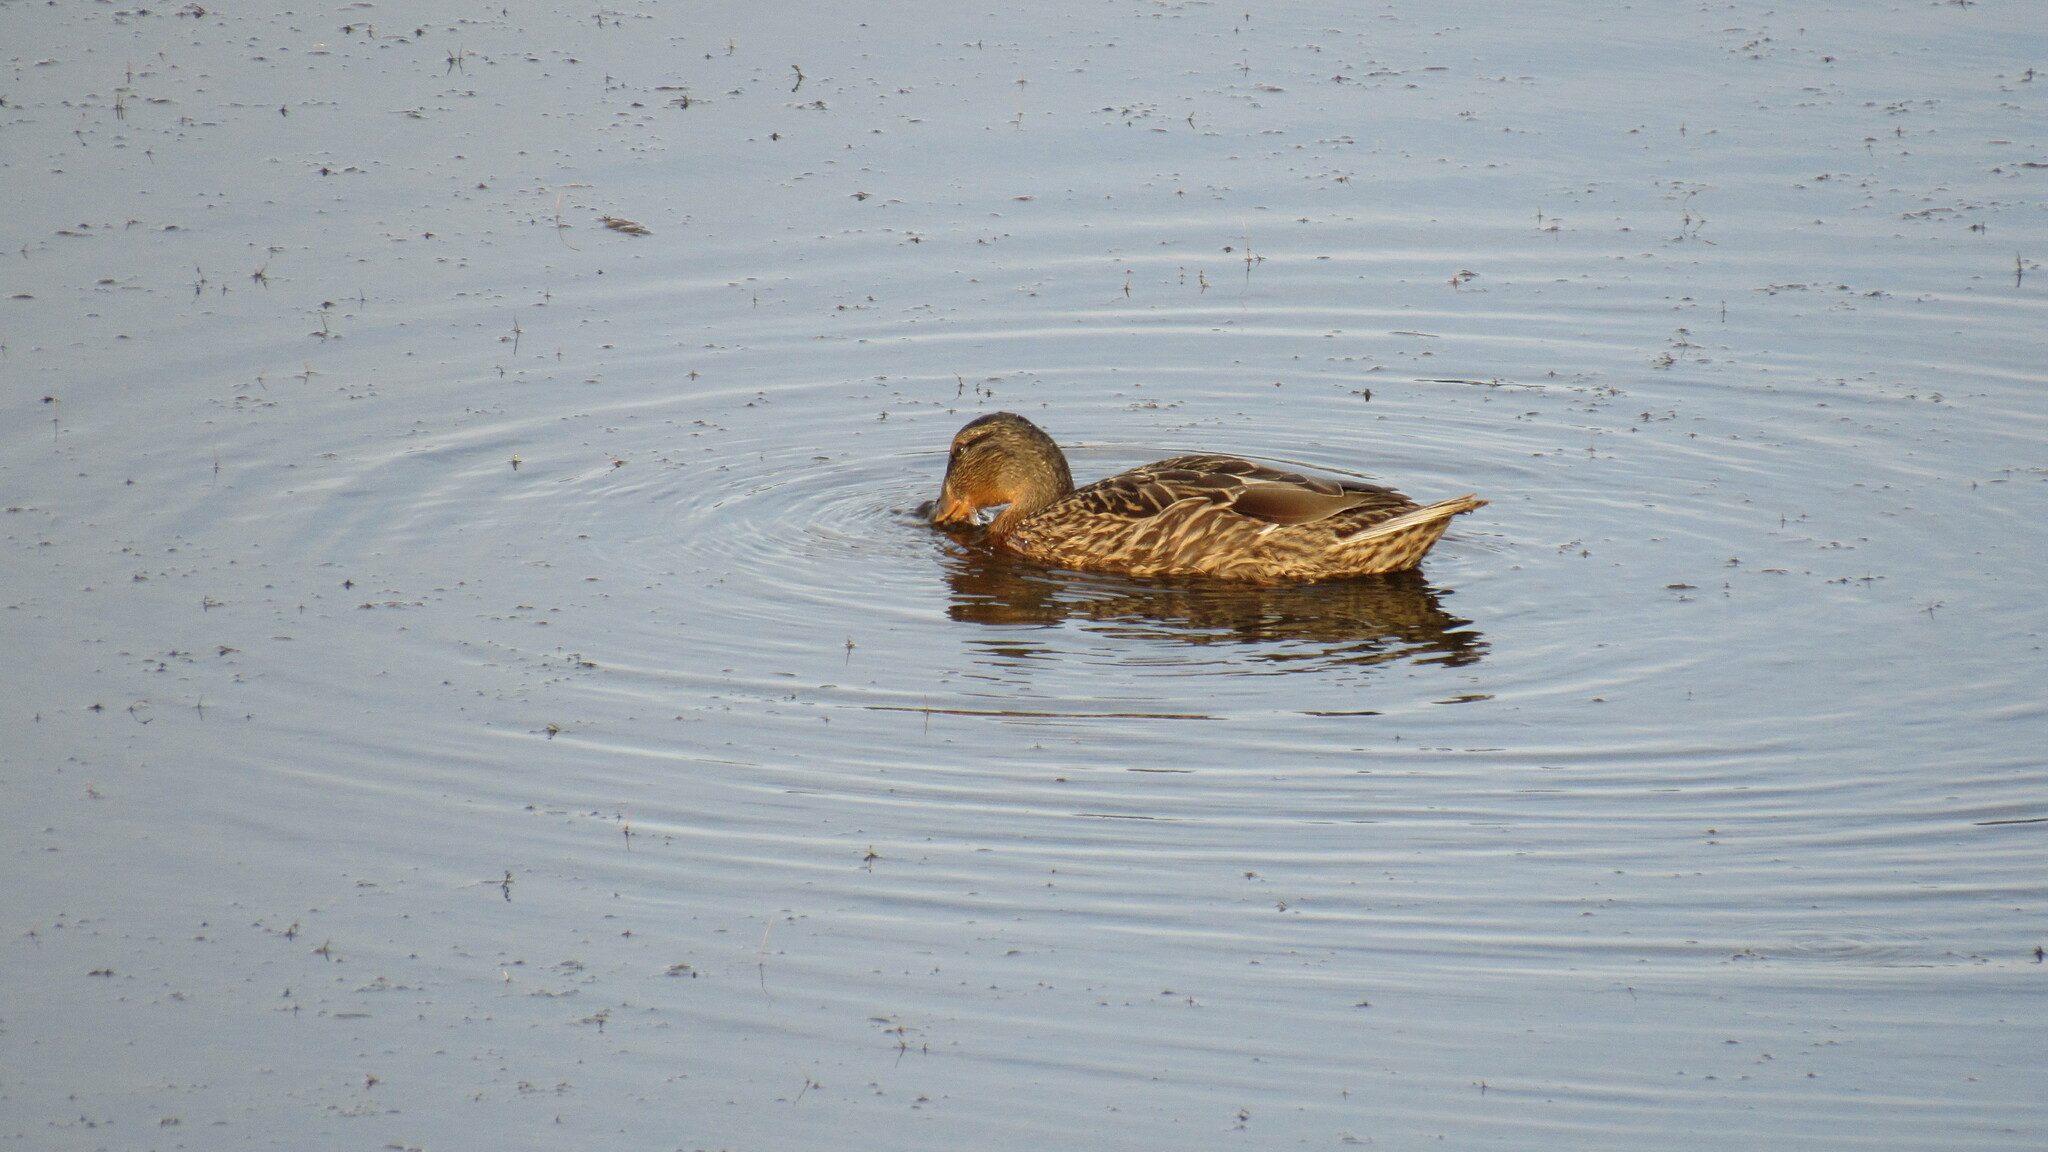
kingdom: Animalia
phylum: Chordata
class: Aves
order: Anseriformes
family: Anatidae
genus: Anas
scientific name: Anas platyrhynchos
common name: Mallard
